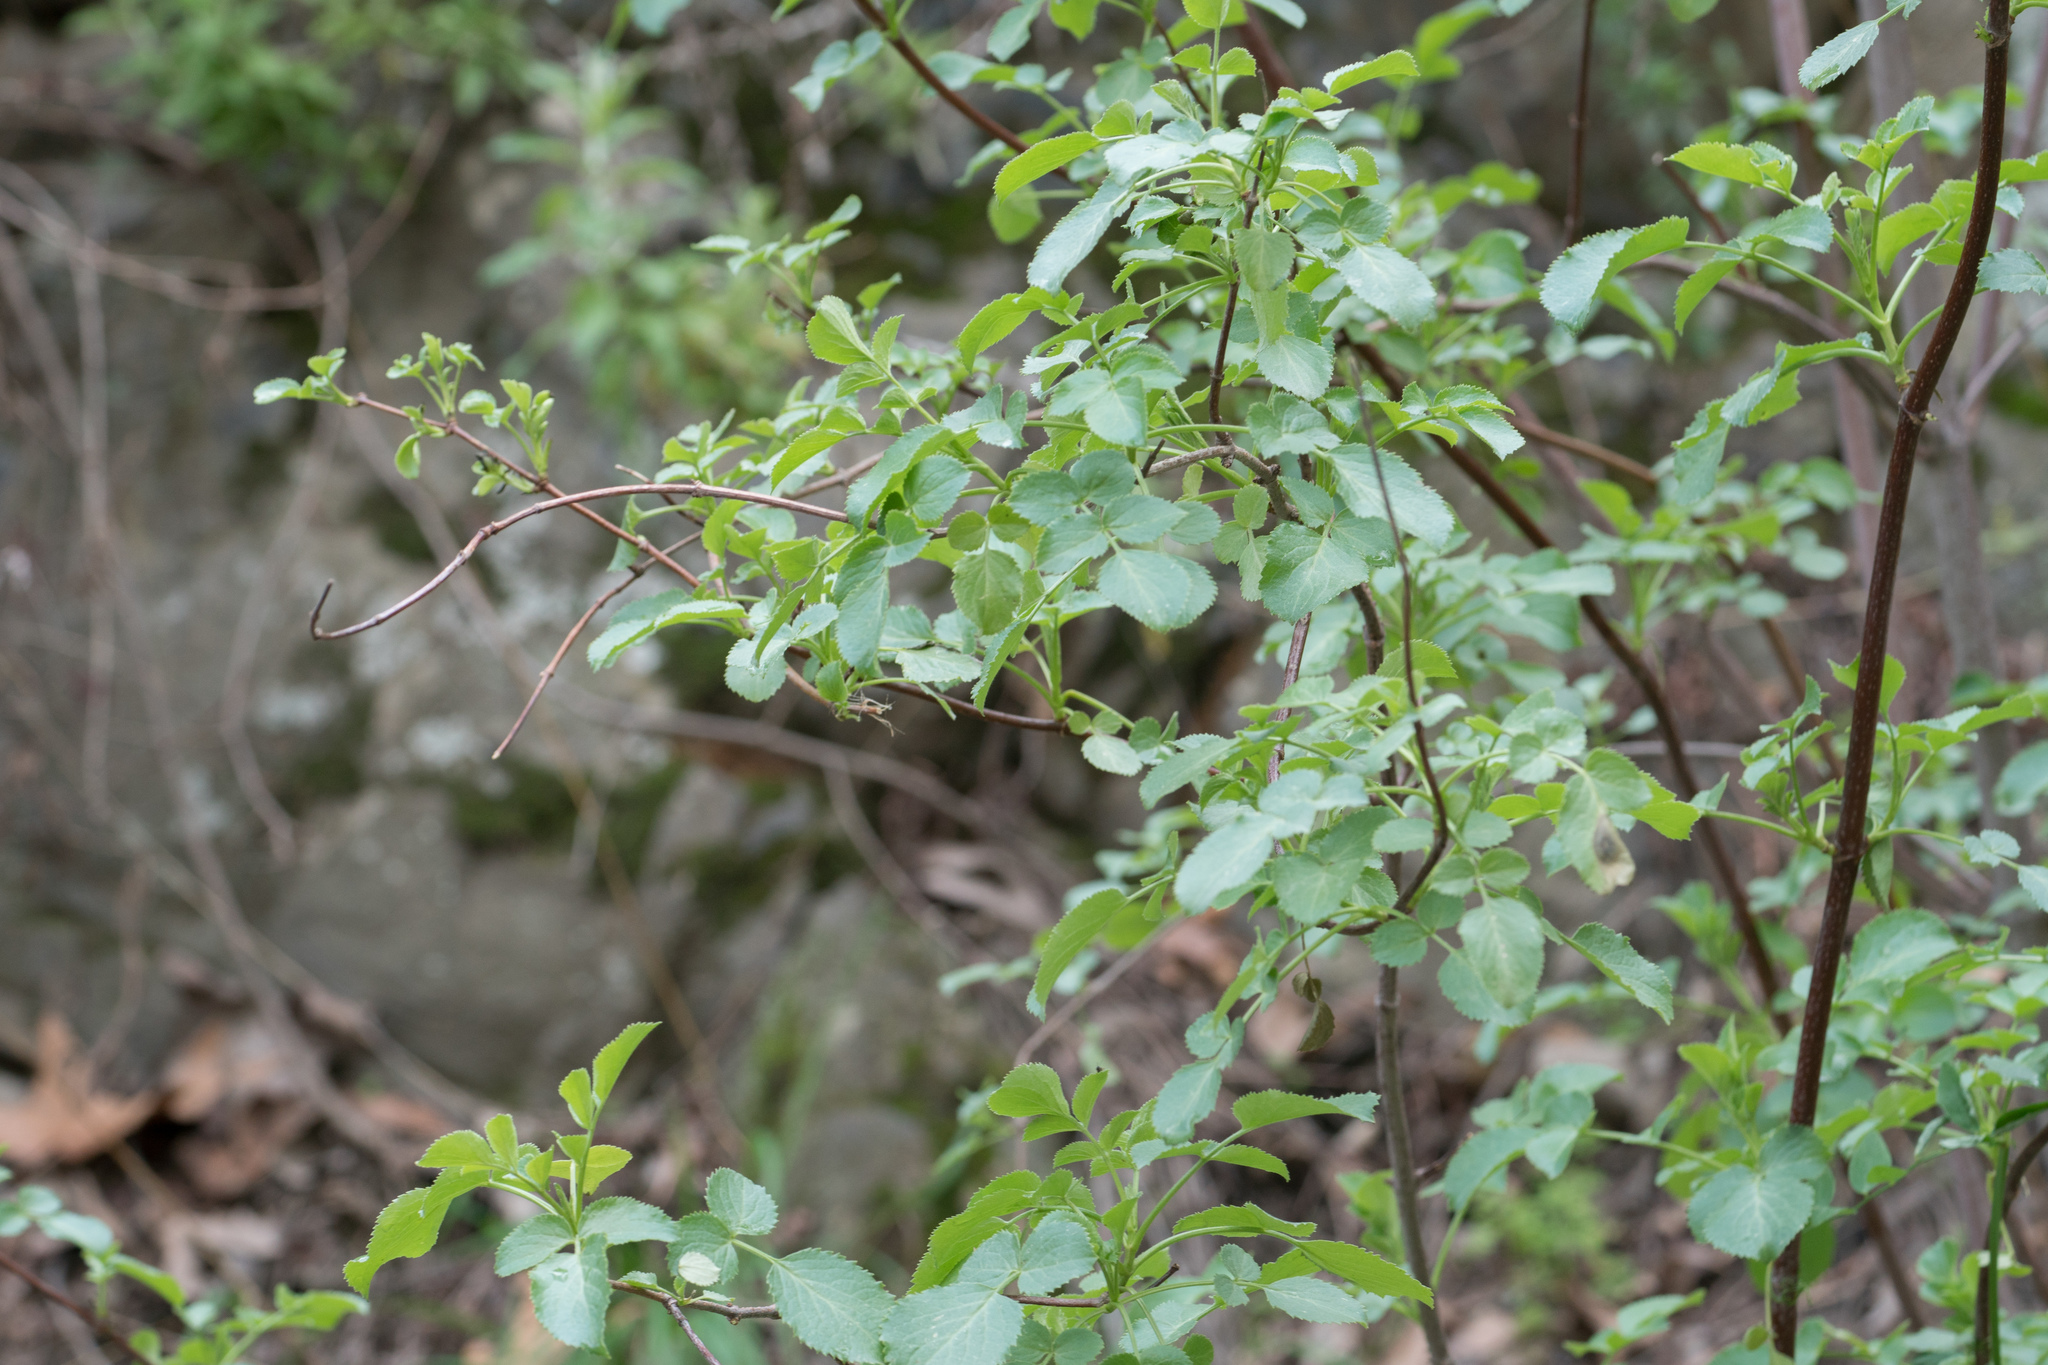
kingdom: Plantae
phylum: Tracheophyta
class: Magnoliopsida
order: Dipsacales
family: Viburnaceae
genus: Sambucus
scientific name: Sambucus cerulea
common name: Blue elder
